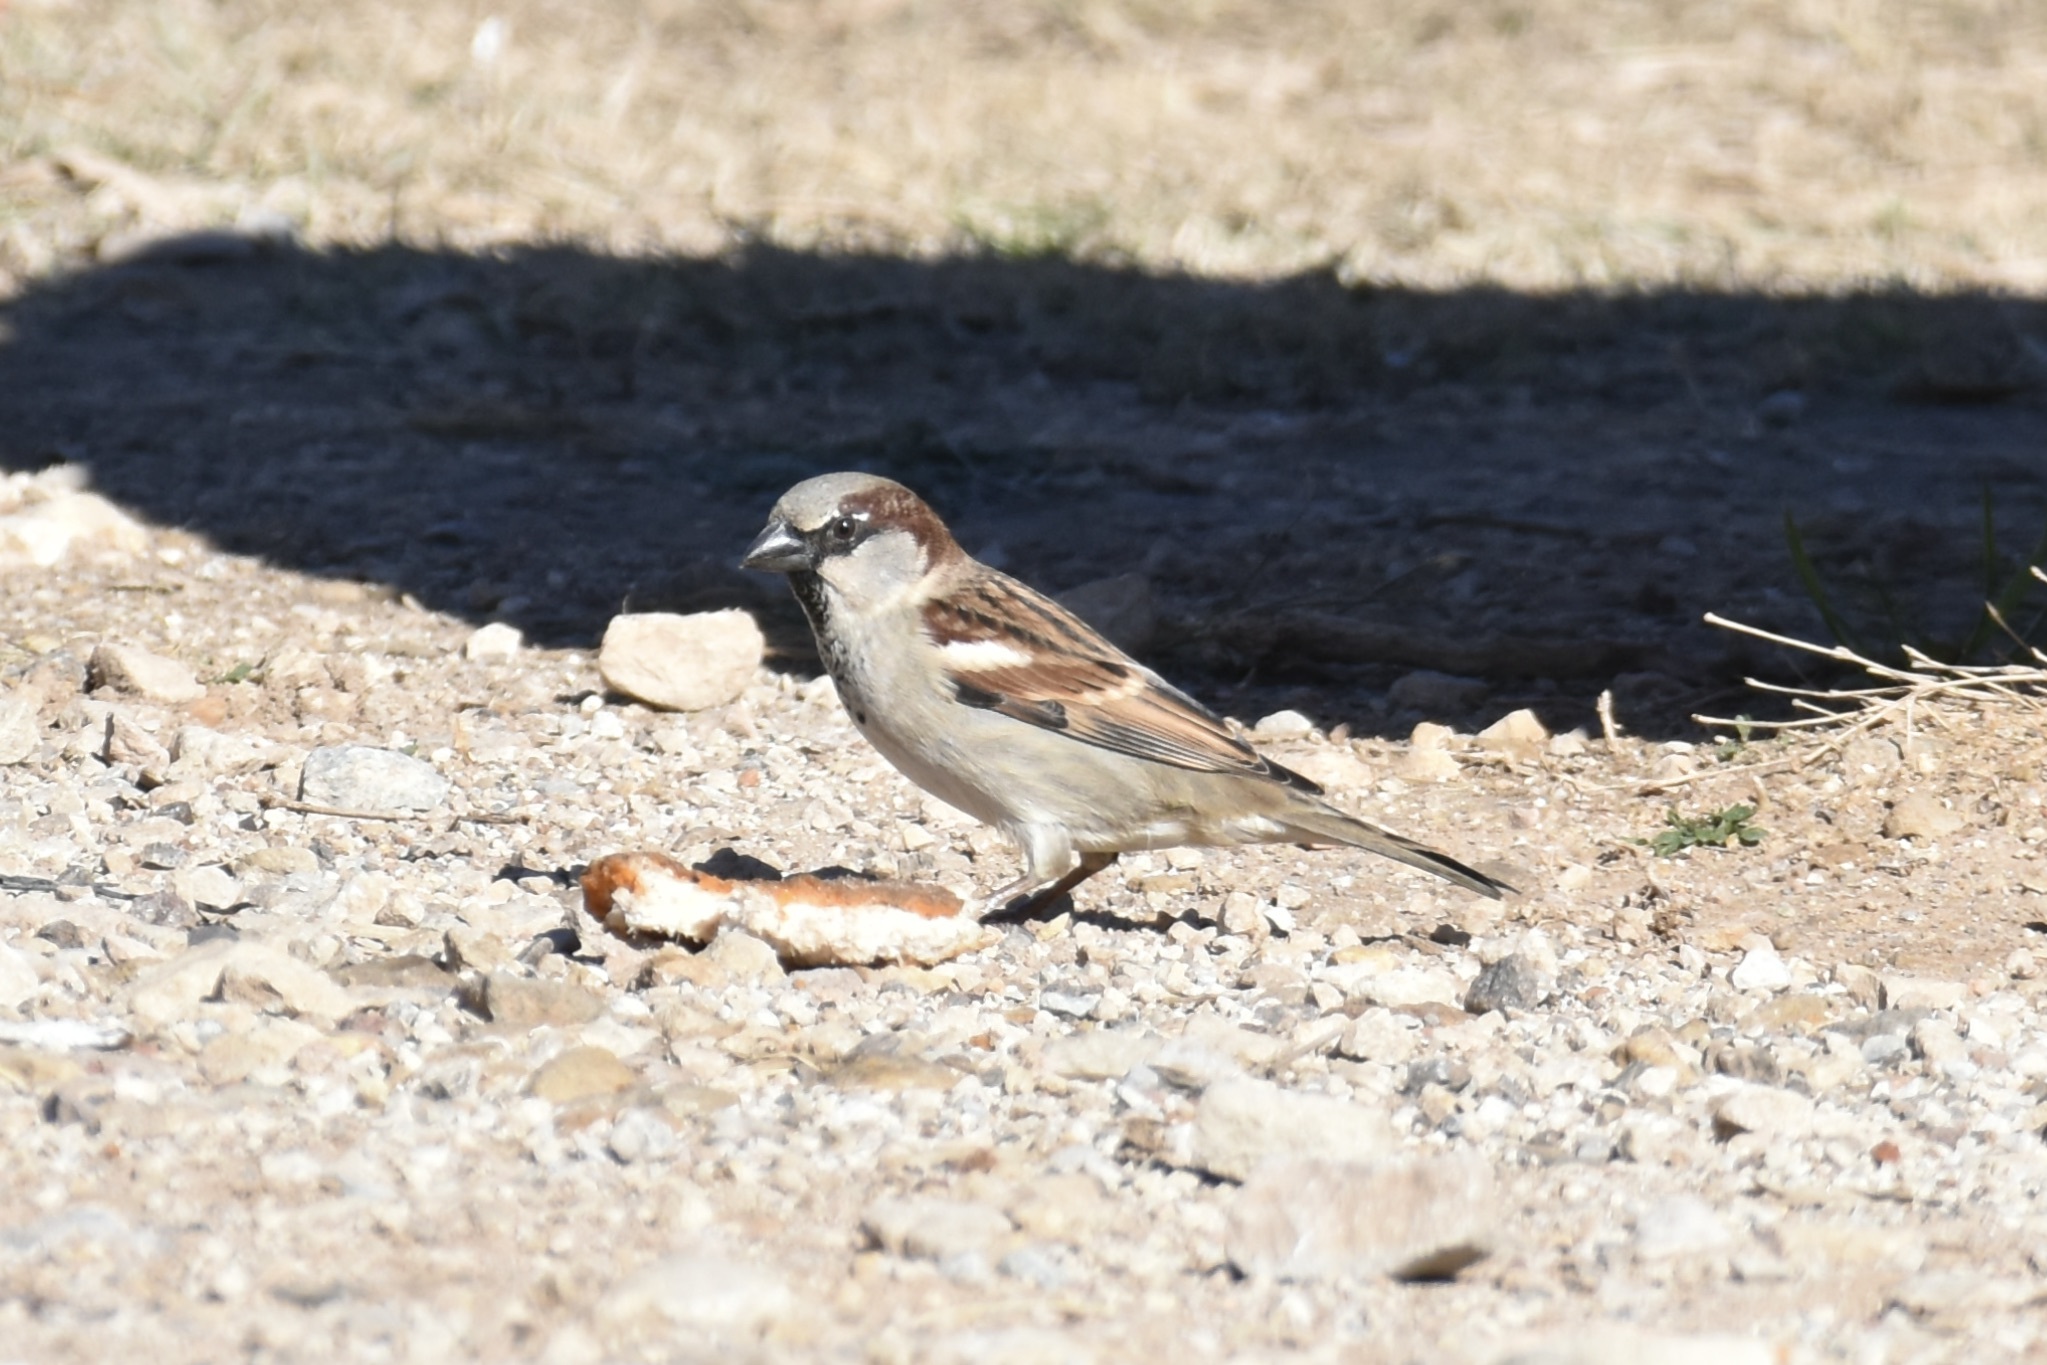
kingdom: Animalia
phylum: Chordata
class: Aves
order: Passeriformes
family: Passeridae
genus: Passer
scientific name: Passer domesticus
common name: House sparrow
